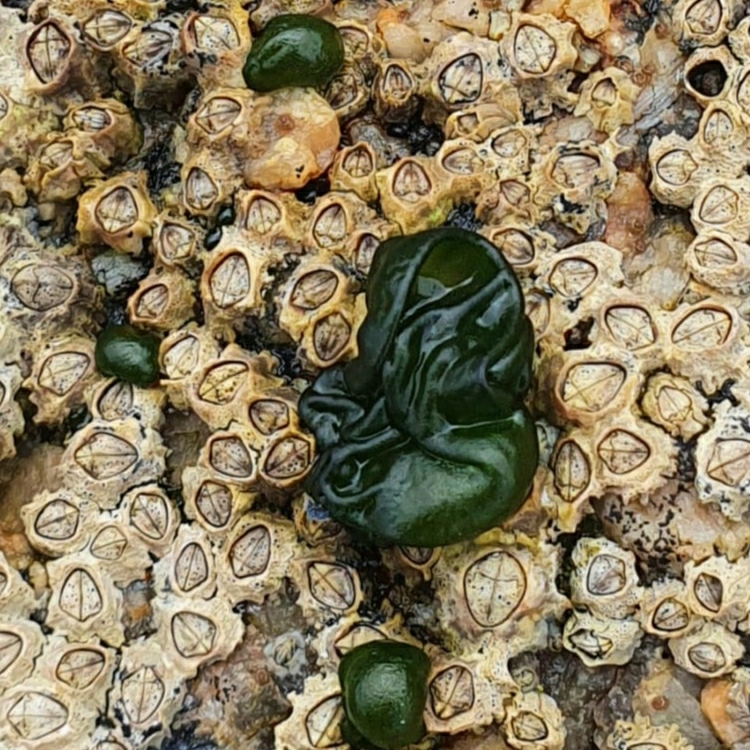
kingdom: Bacteria
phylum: Cyanobacteria
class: Cyanobacteriia
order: Cyanobacteriales
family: Nostocaceae
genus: Rivularia
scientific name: Rivularia bullata
